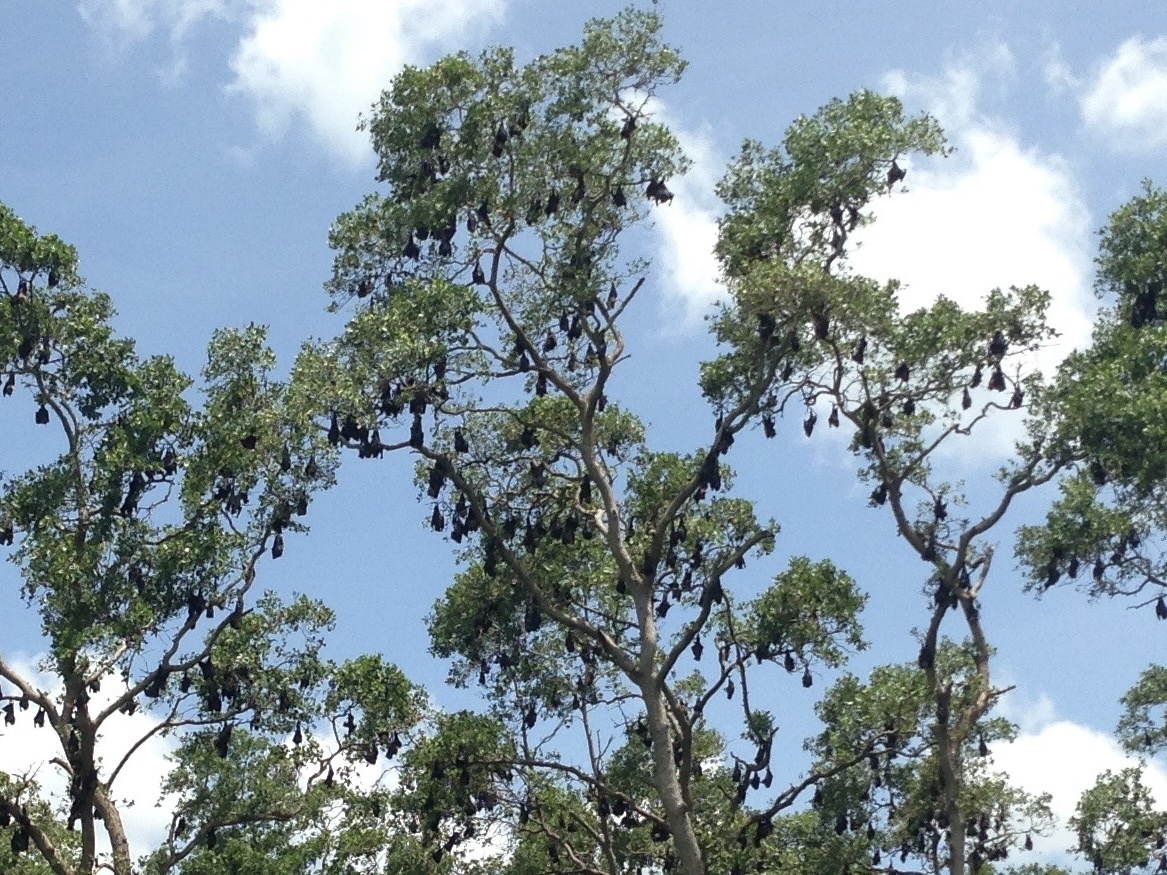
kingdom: Animalia
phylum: Chordata
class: Mammalia
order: Chiroptera
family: Pteropodidae
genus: Pteropus
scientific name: Pteropus vampyrus
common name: Large flying fox
